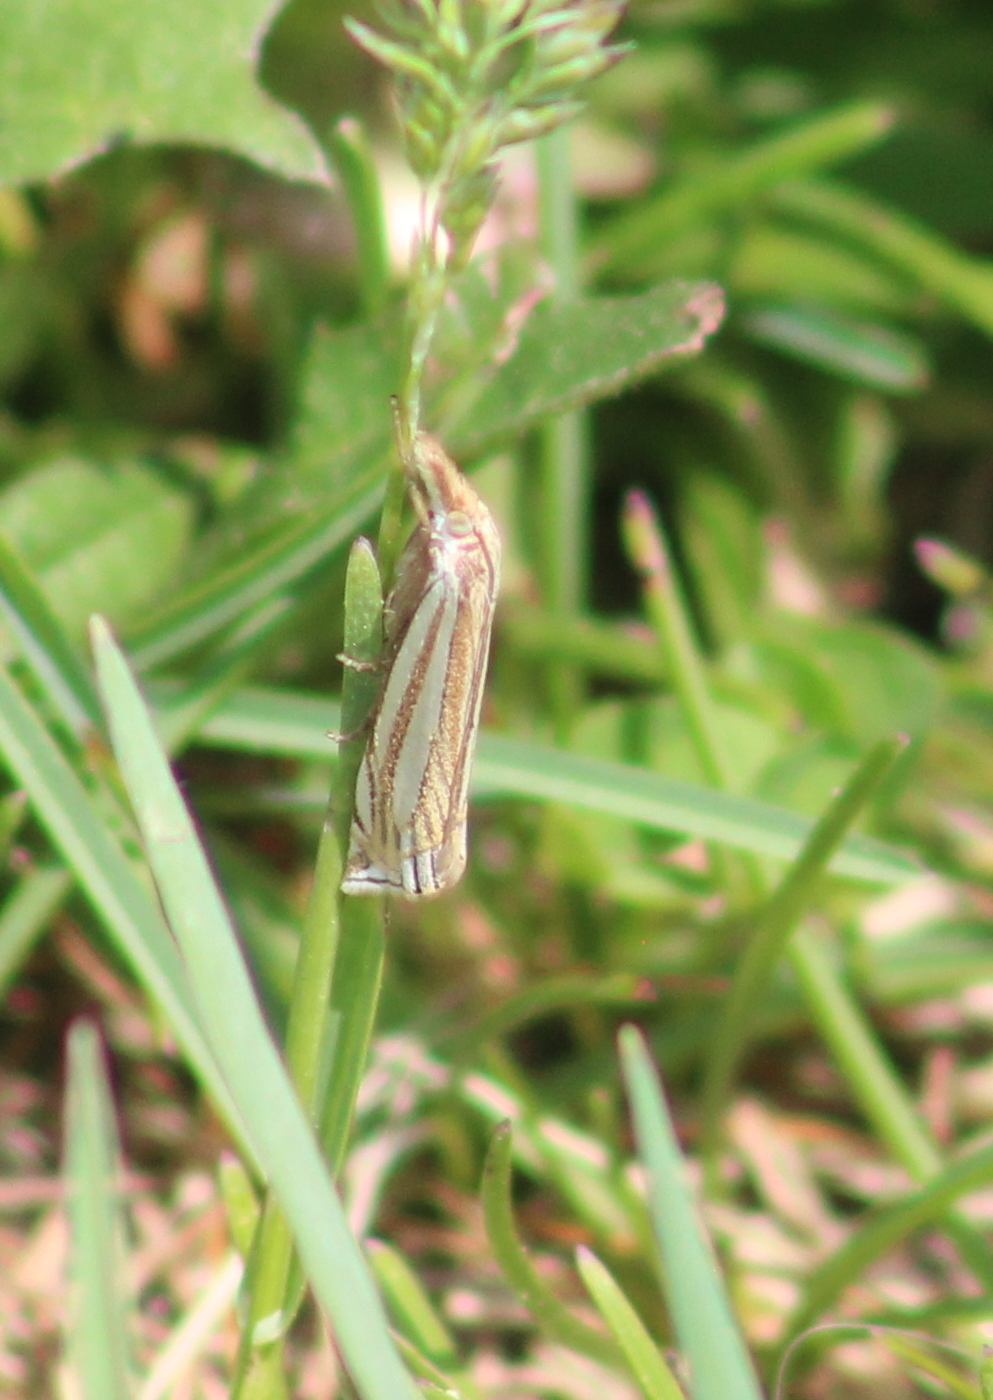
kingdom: Animalia
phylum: Arthropoda
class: Insecta
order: Lepidoptera
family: Crambidae
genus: Crambus
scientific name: Crambus laqueatellus
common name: Eastern grass-veneer
